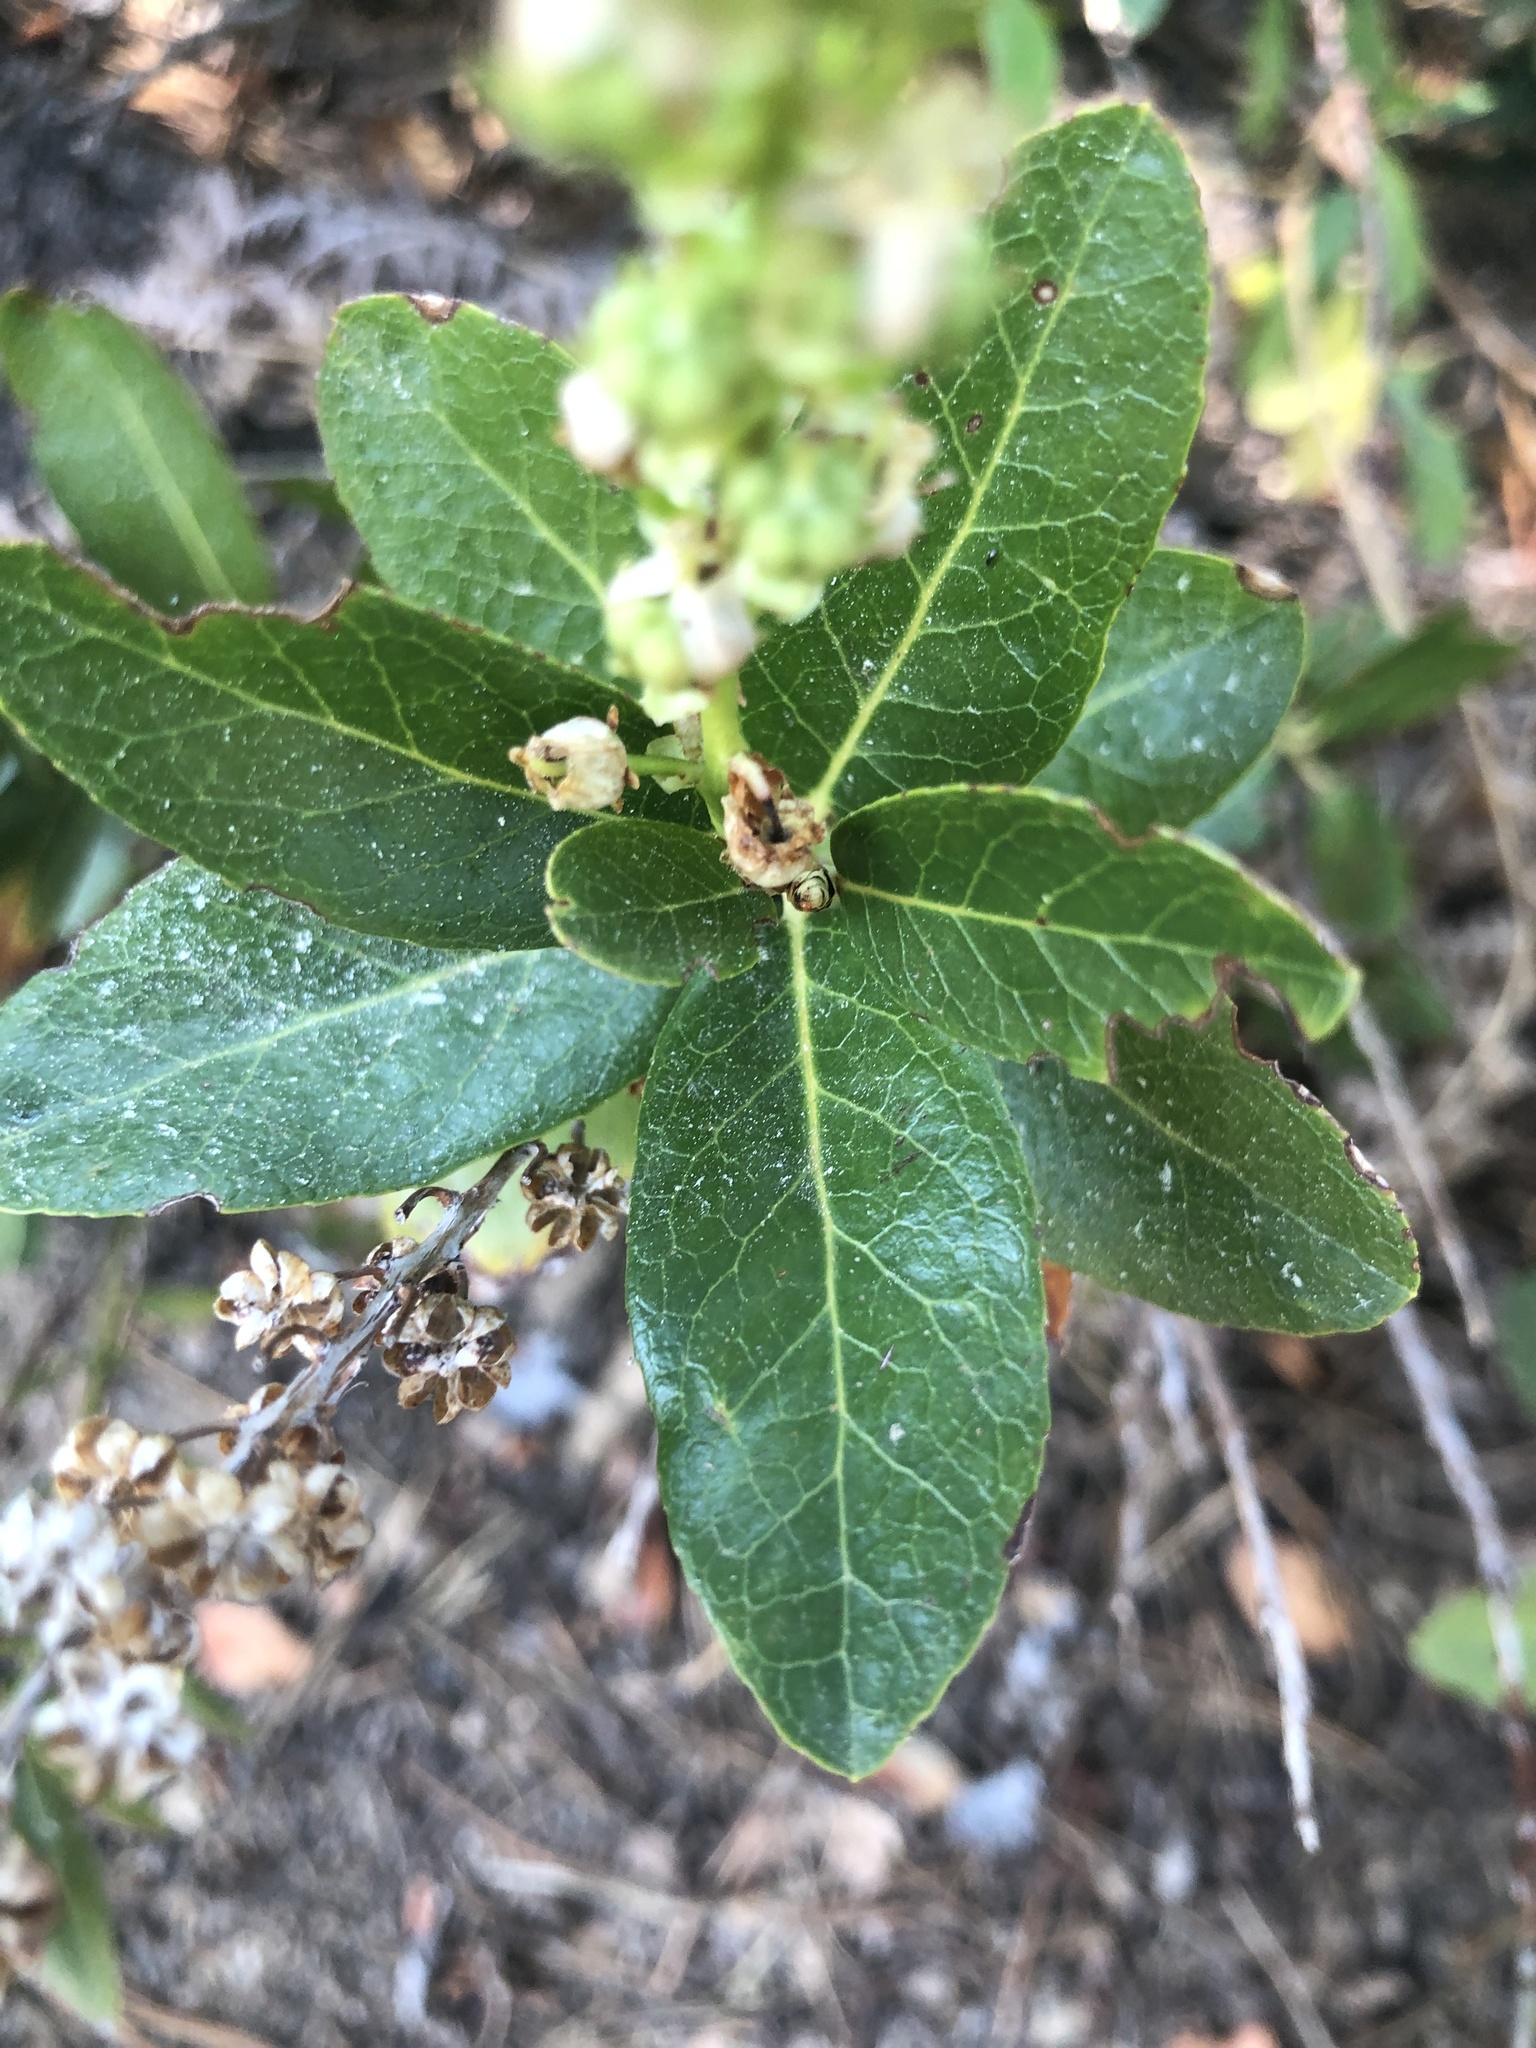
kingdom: Plantae
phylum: Tracheophyta
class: Magnoliopsida
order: Ericales
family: Ericaceae
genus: Leucothoe
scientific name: Leucothoe davisiae
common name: Sierra-laurel
